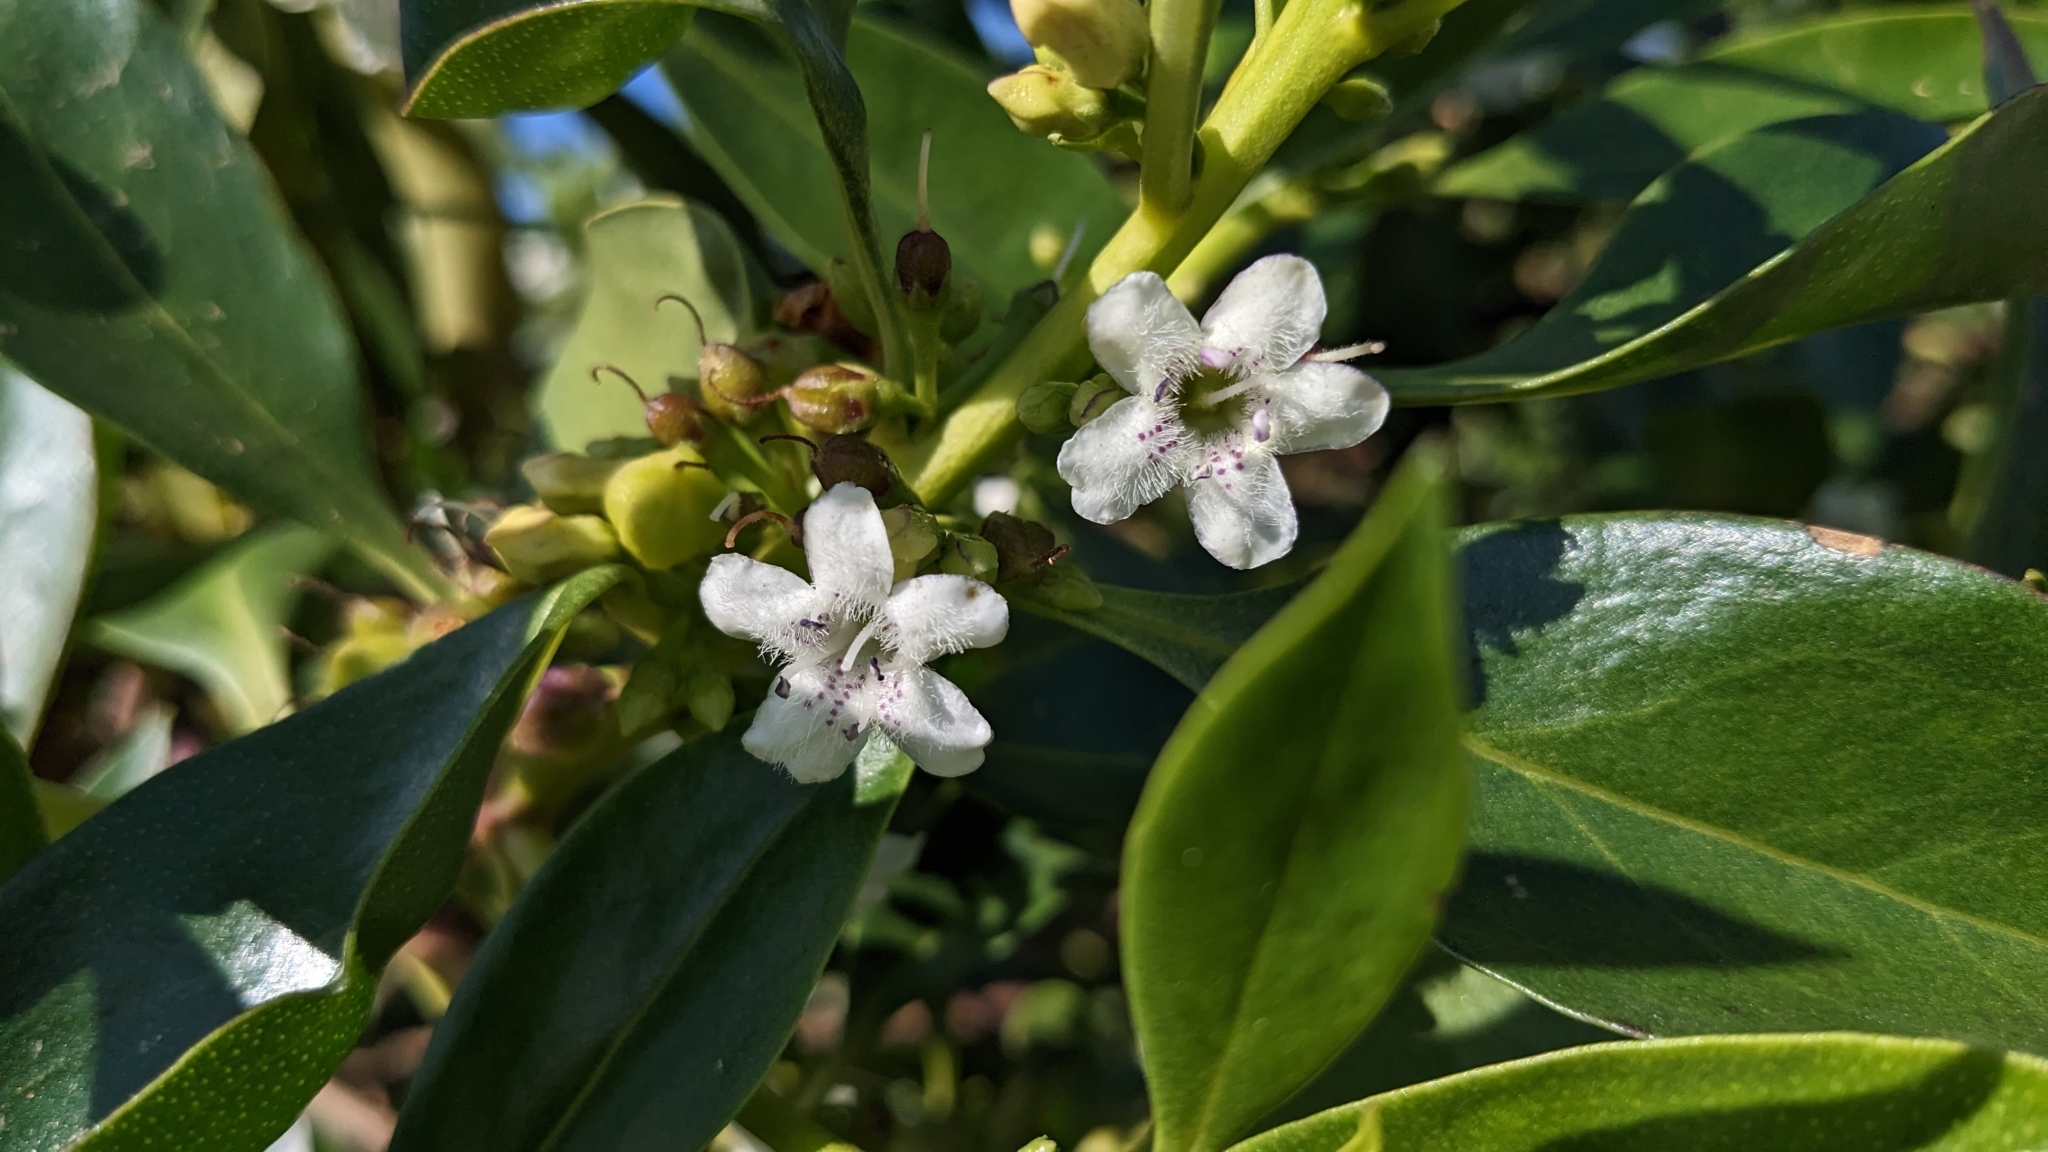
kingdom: Plantae
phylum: Tracheophyta
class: Magnoliopsida
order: Lamiales
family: Scrophulariaceae
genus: Myoporum
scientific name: Myoporum laetum
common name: Ngaio tree
